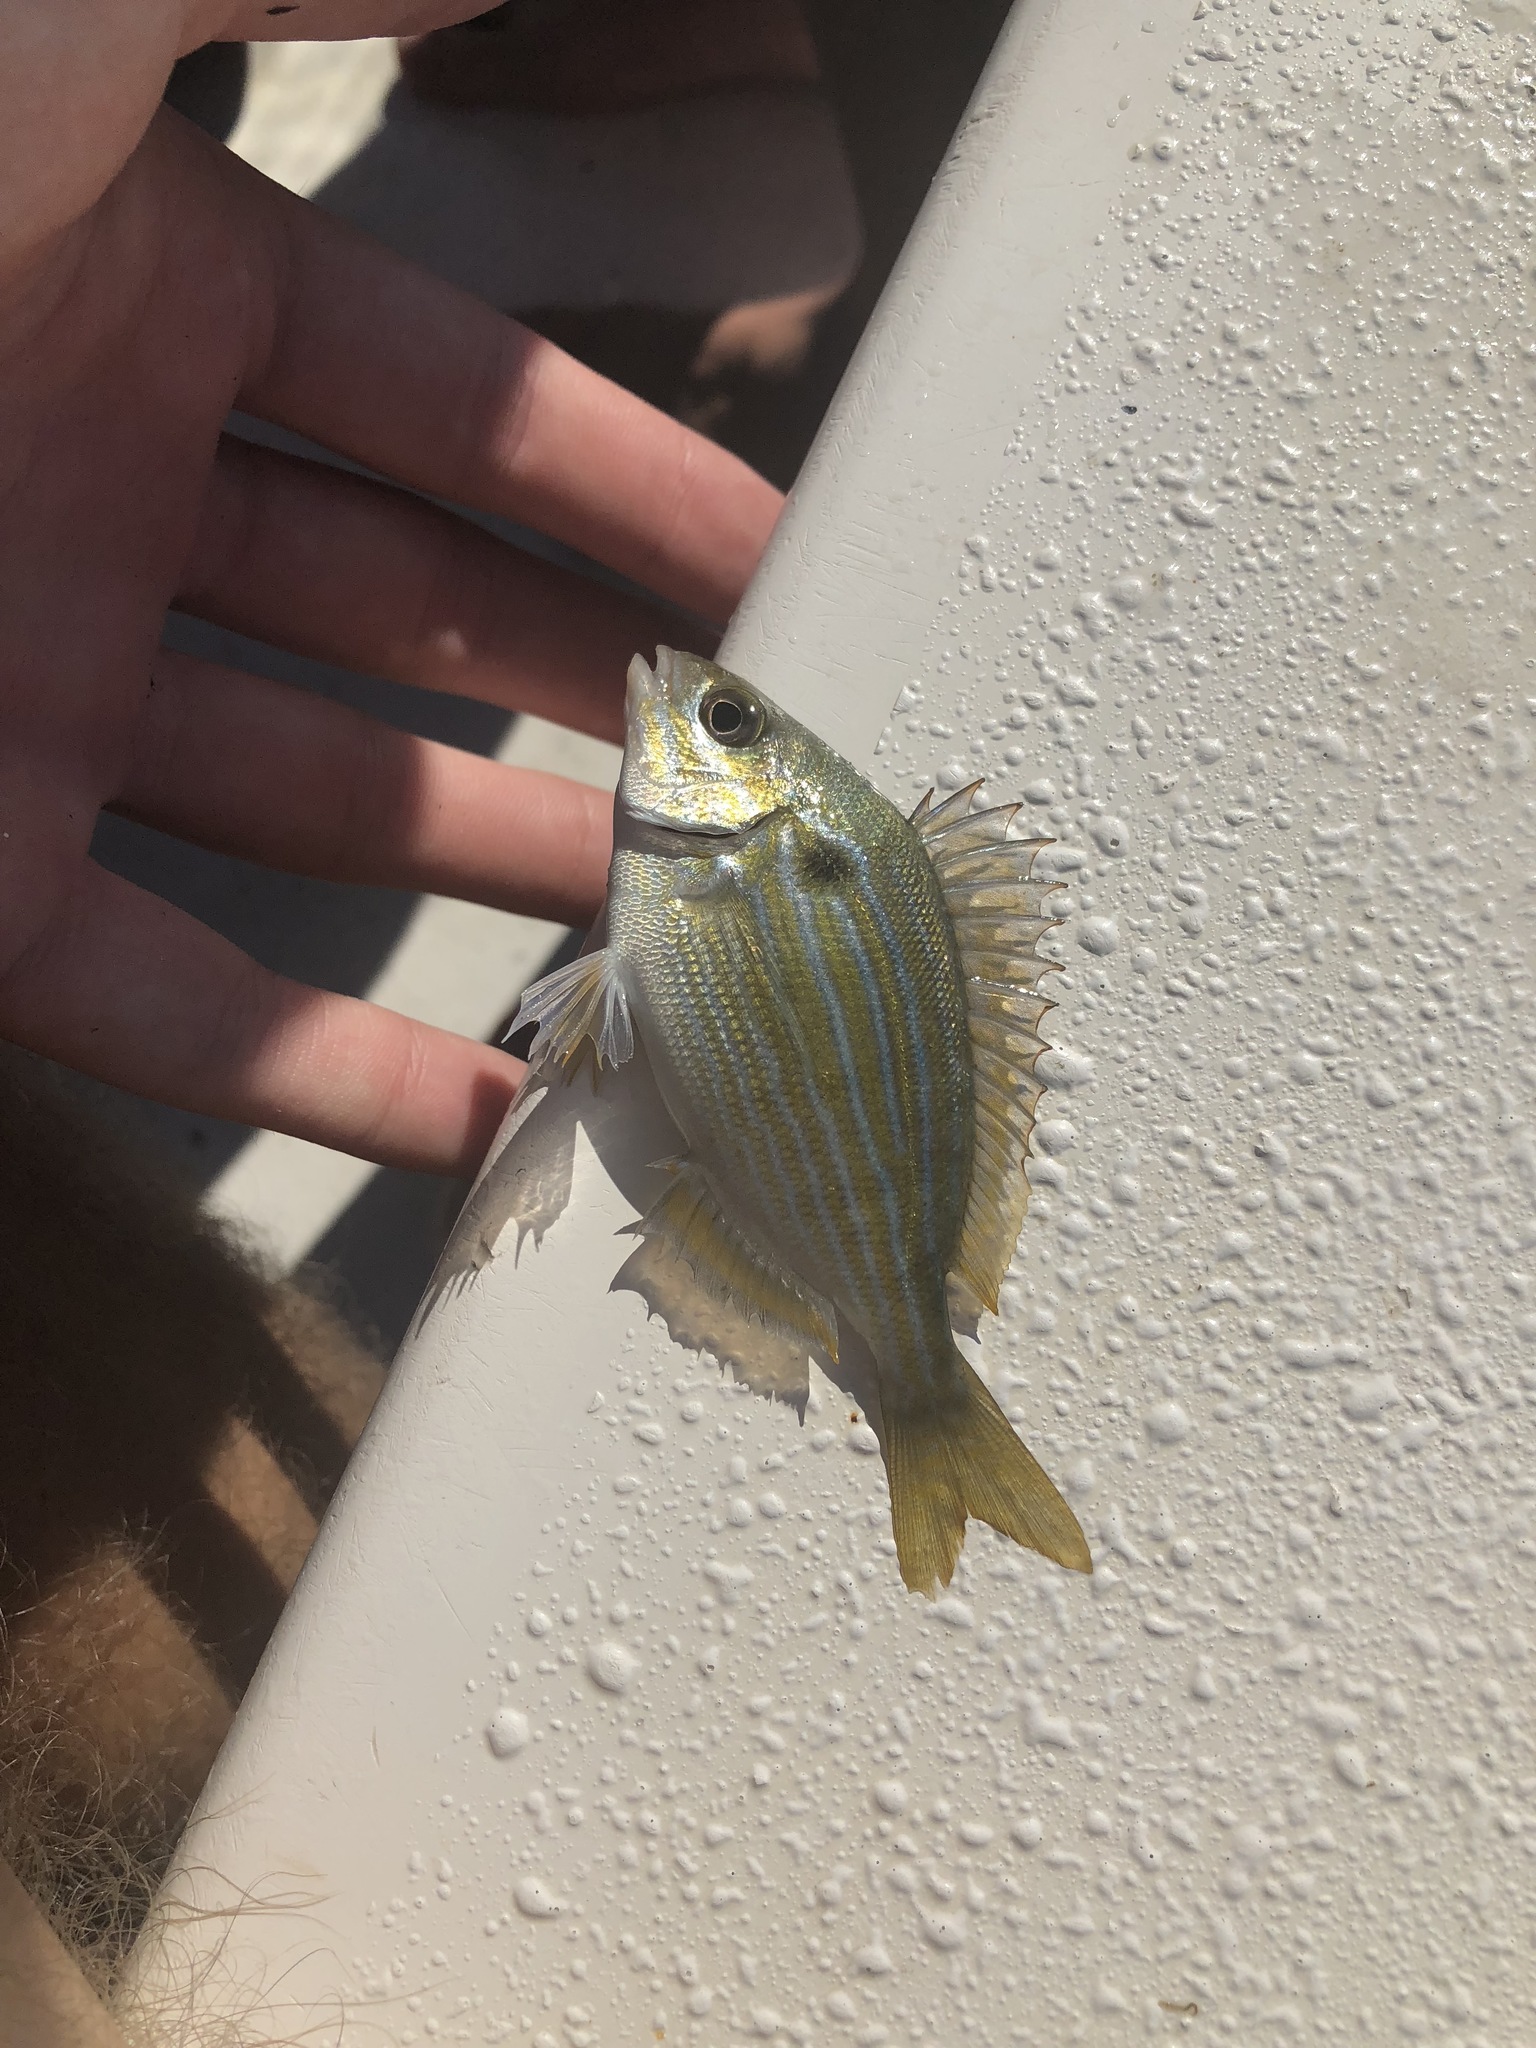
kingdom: Animalia
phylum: Chordata
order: Perciformes
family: Sparidae
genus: Lagodon
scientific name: Lagodon rhomboides
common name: Pinfish
